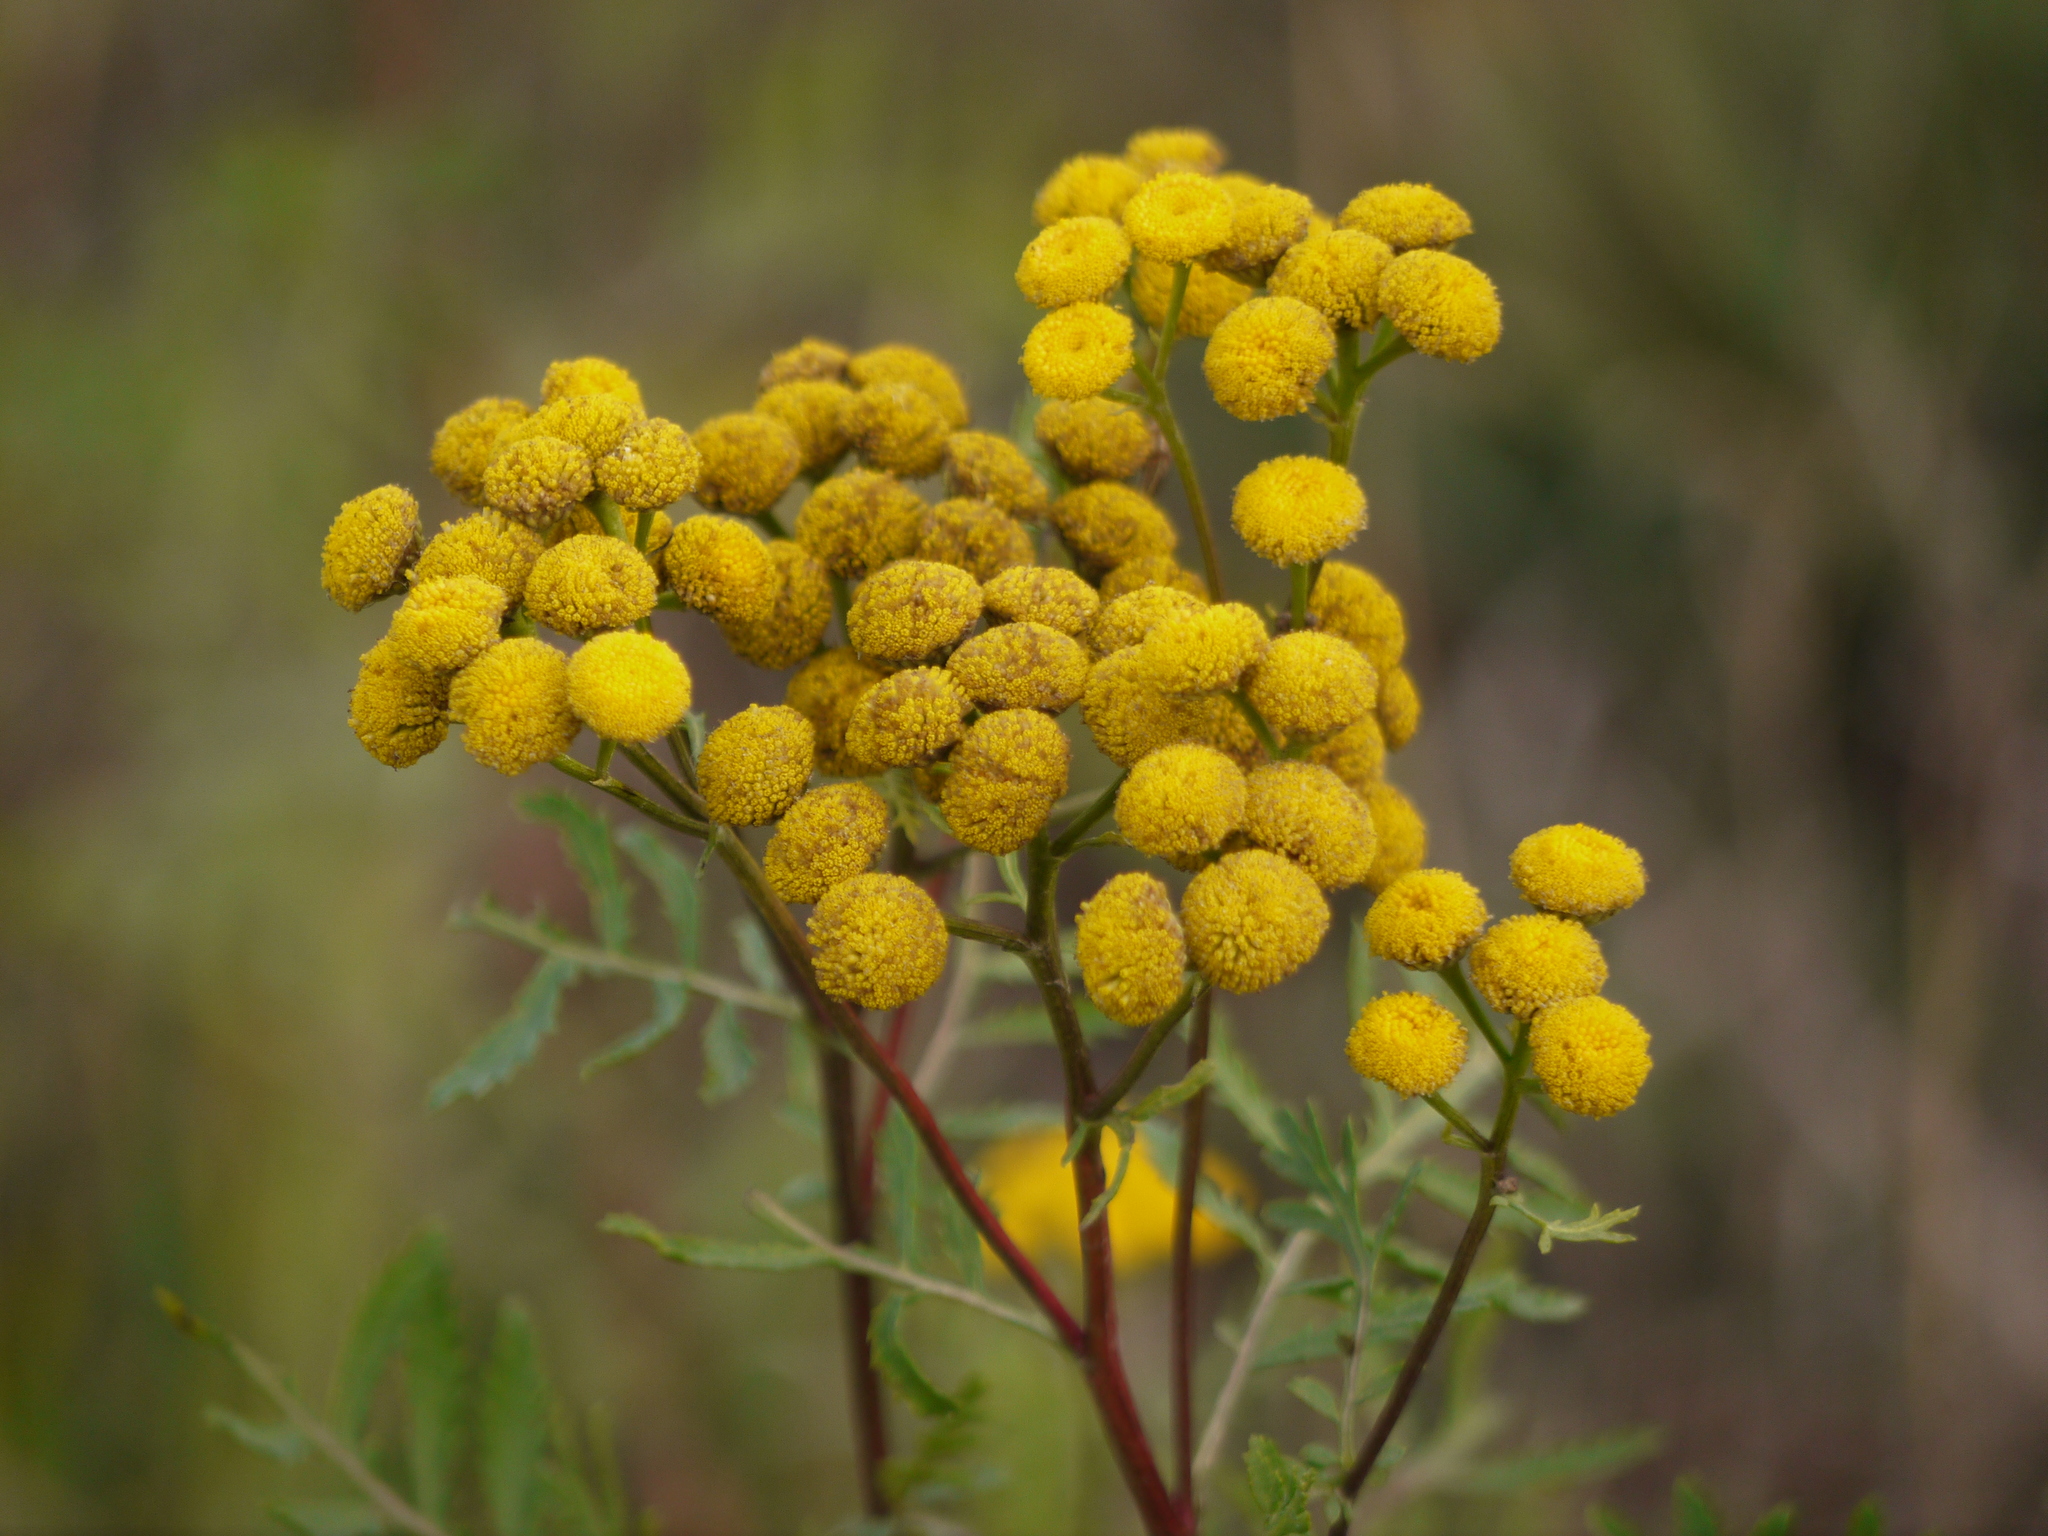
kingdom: Plantae
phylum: Tracheophyta
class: Magnoliopsida
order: Asterales
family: Asteraceae
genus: Tanacetum
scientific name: Tanacetum vulgare
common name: Common tansy
